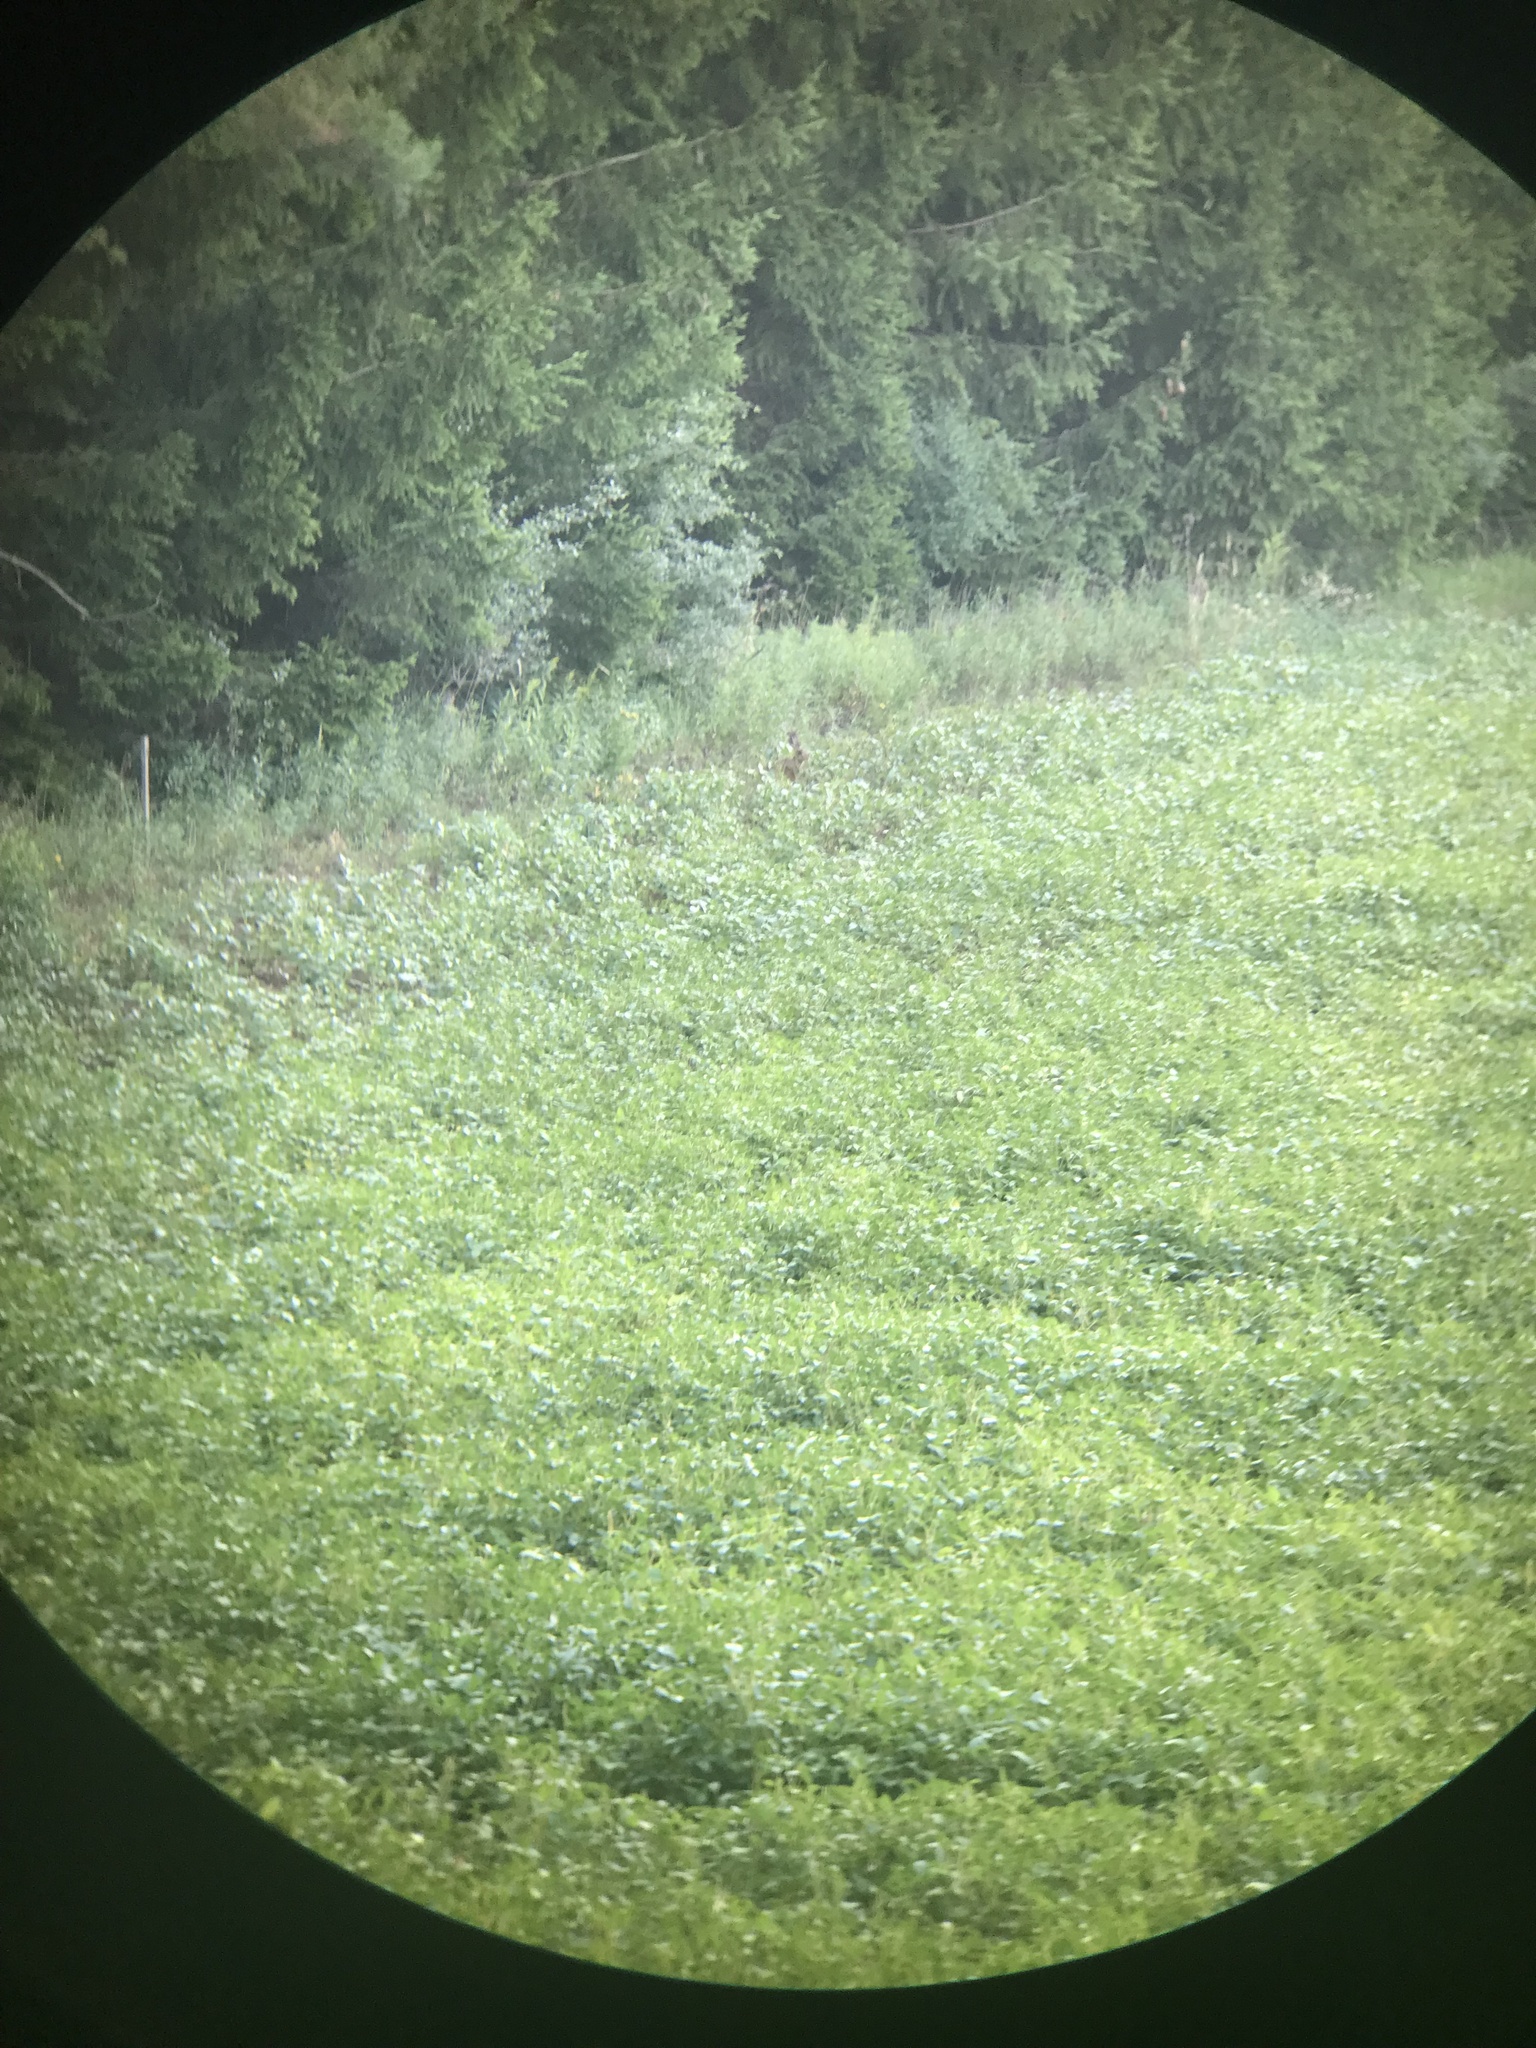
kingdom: Animalia
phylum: Chordata
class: Mammalia
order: Lagomorpha
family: Leporidae
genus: Lepus
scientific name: Lepus europaeus
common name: European hare
